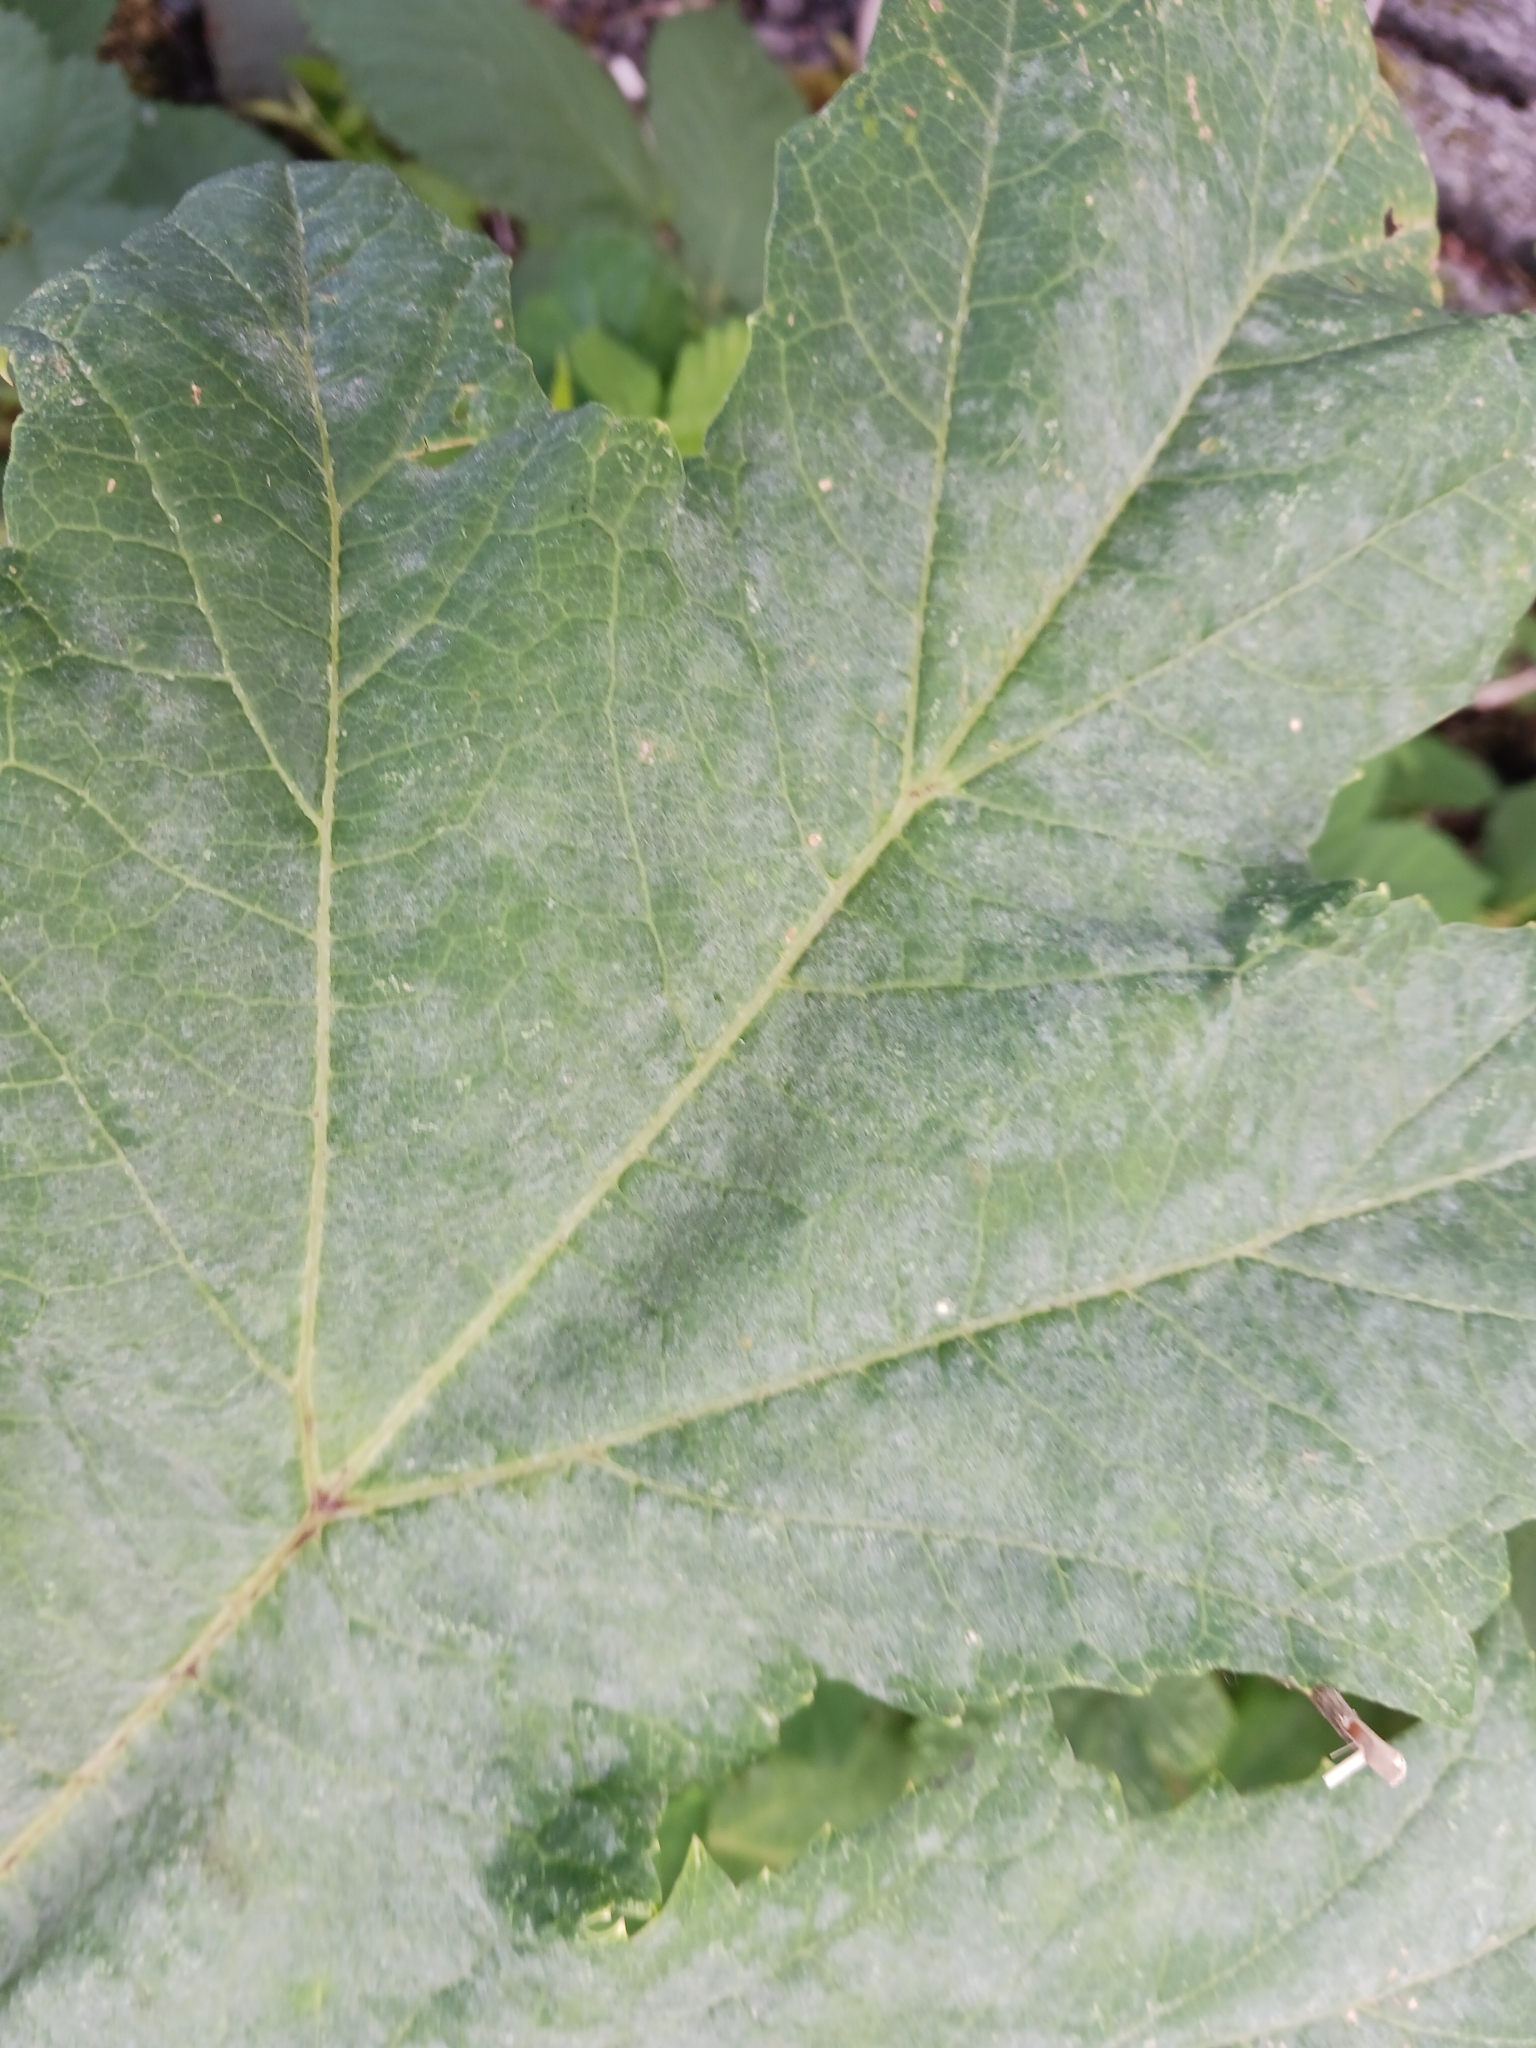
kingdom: Fungi
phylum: Ascomycota
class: Leotiomycetes
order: Helotiales
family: Erysiphaceae
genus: Erysiphe
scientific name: Erysiphe heraclei
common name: Umbellifer mildew
